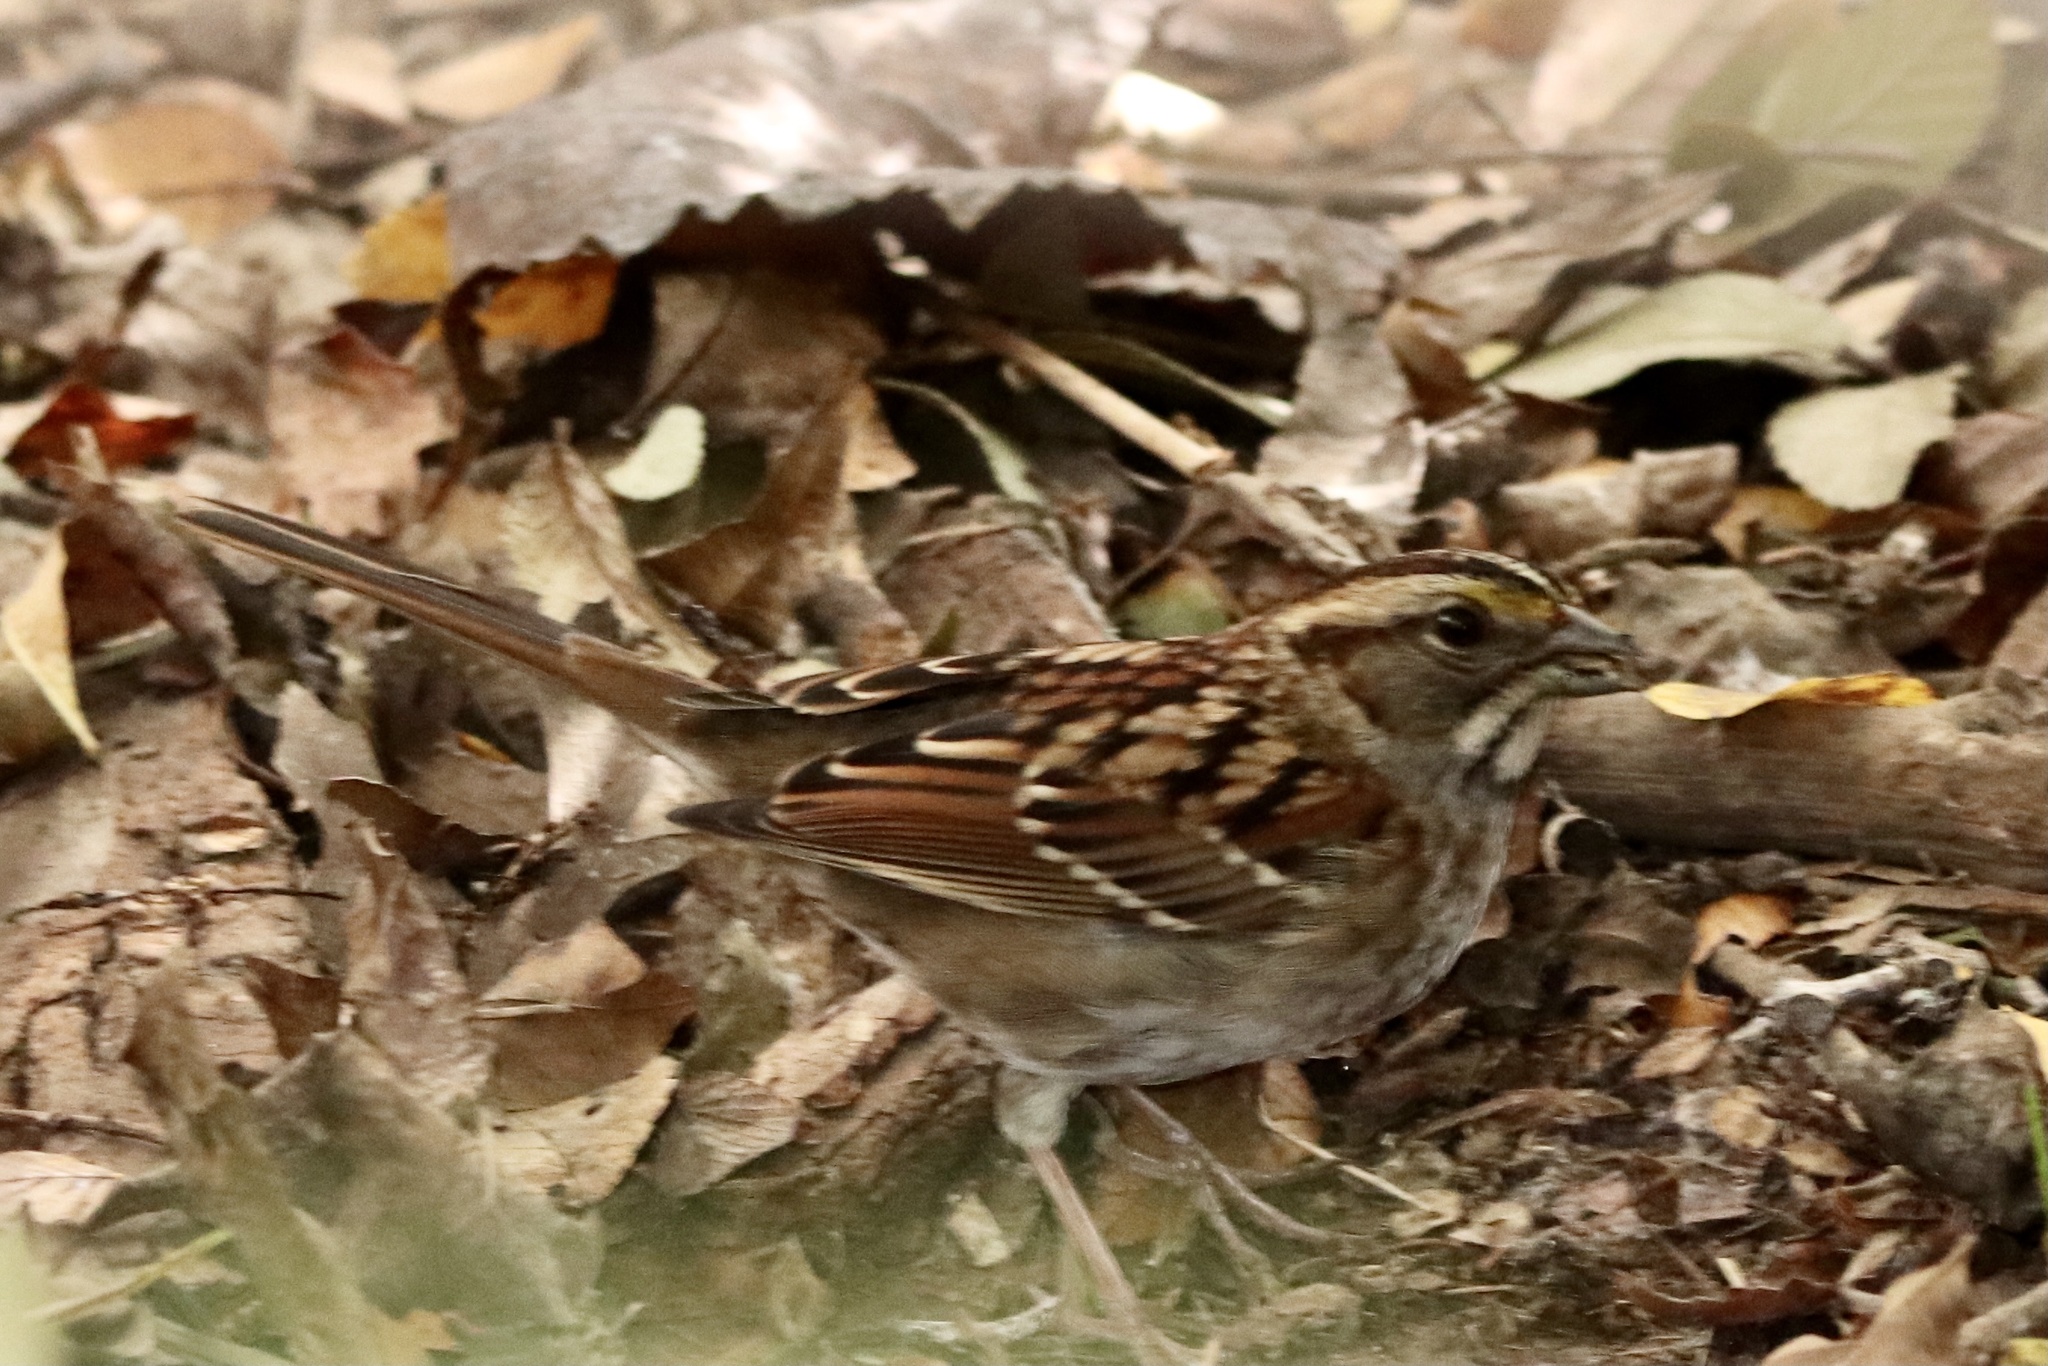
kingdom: Animalia
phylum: Chordata
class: Aves
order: Passeriformes
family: Passerellidae
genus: Zonotrichia
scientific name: Zonotrichia albicollis
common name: White-throated sparrow
